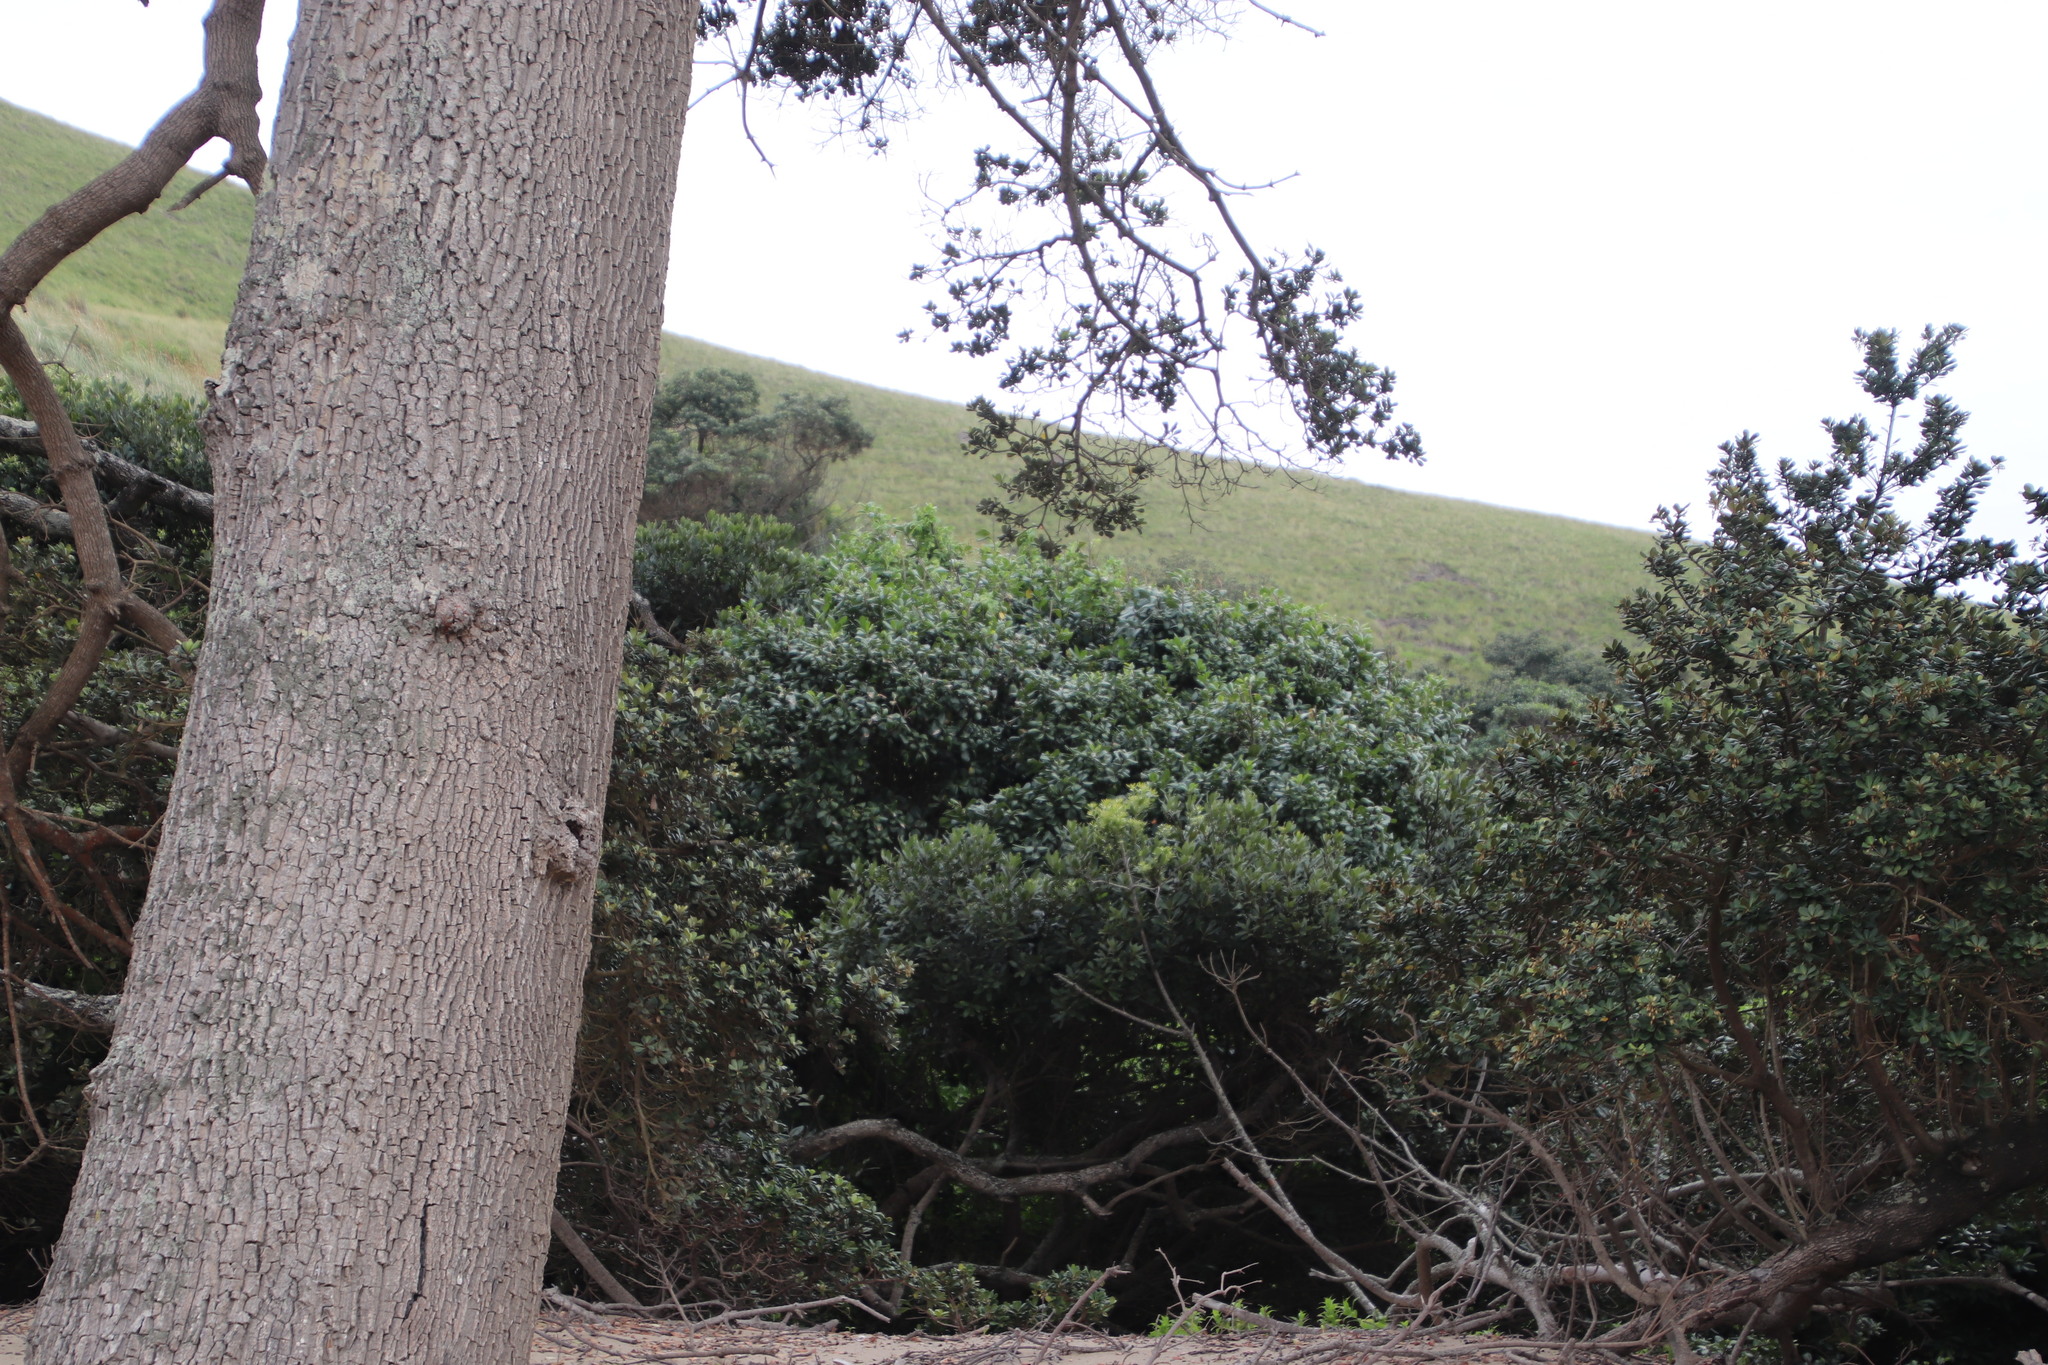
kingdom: Plantae
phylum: Tracheophyta
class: Magnoliopsida
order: Ericales
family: Sapotaceae
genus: Mimusops
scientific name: Mimusops caffra
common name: Coastal red milkwood
